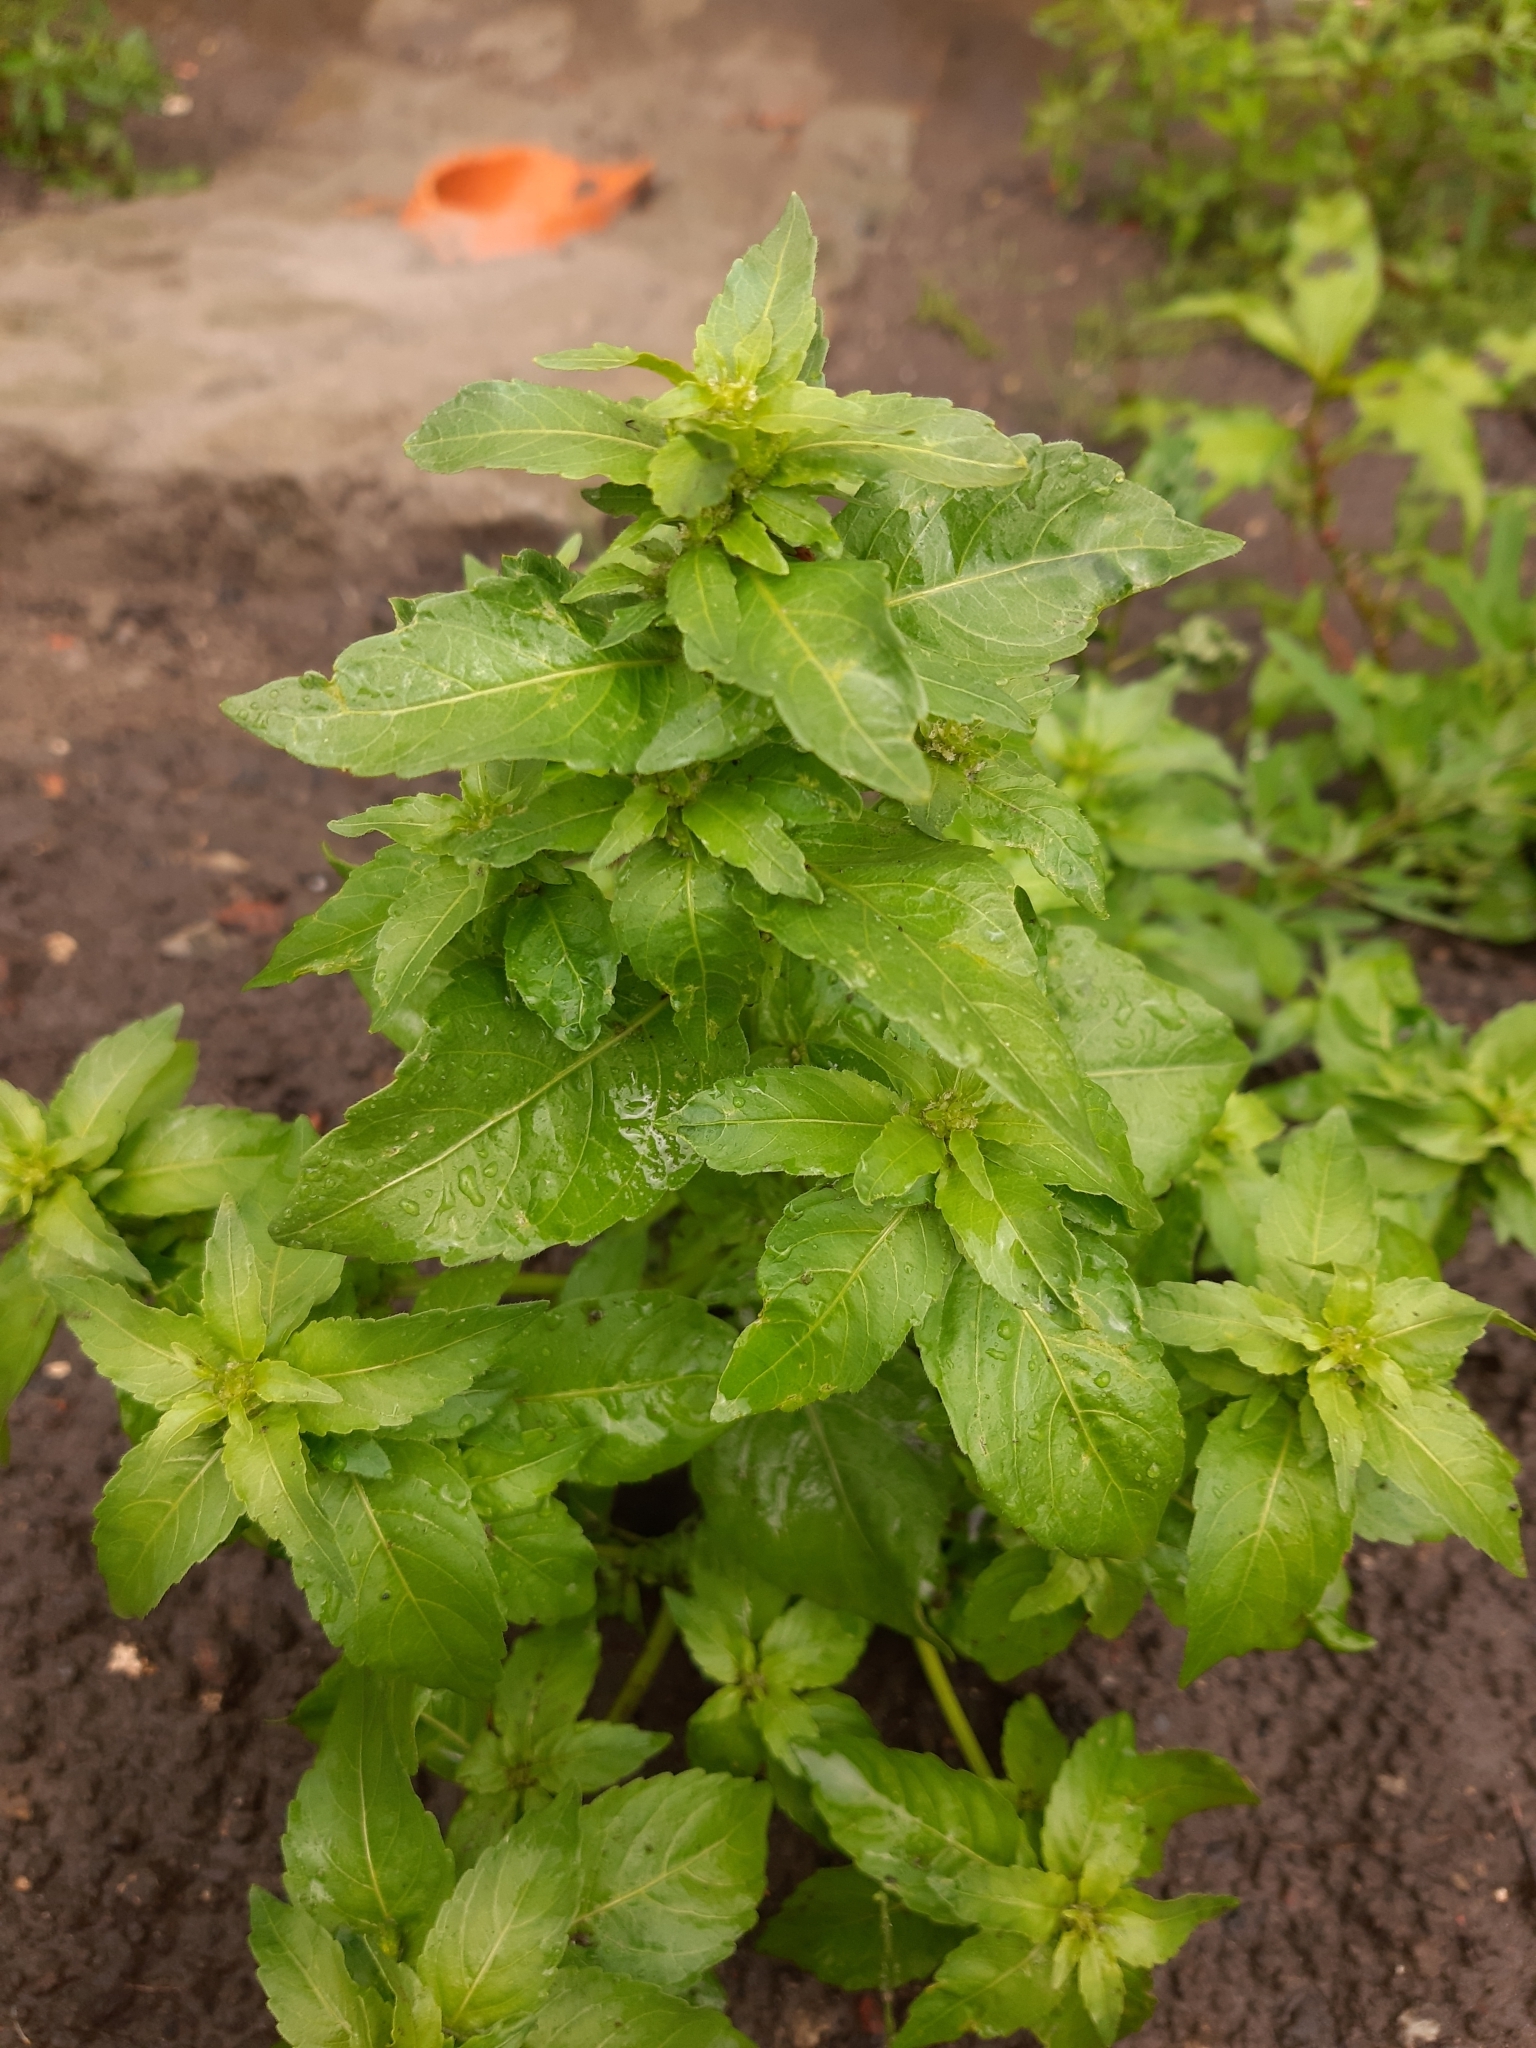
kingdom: Plantae
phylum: Tracheophyta
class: Magnoliopsida
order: Malpighiales
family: Euphorbiaceae
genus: Mercurialis
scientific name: Mercurialis annua
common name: Annual mercury
